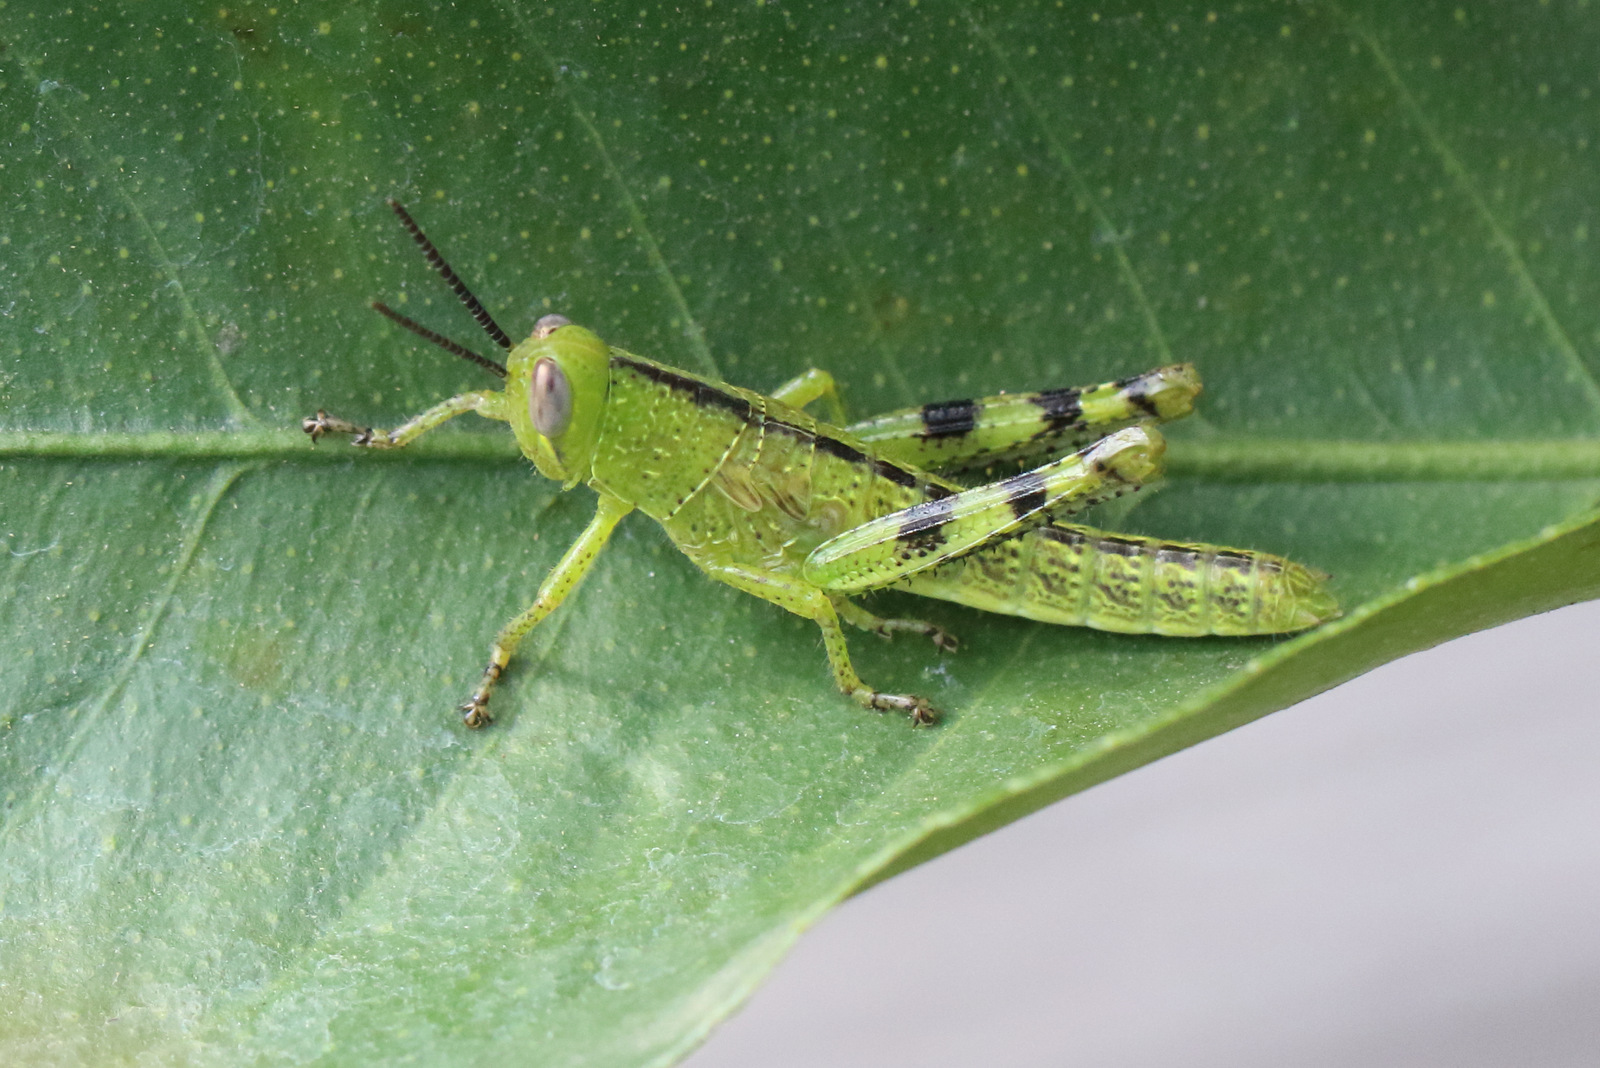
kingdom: Animalia
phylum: Arthropoda
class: Insecta
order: Orthoptera
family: Acrididae
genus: Valanga
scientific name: Valanga irregularis
